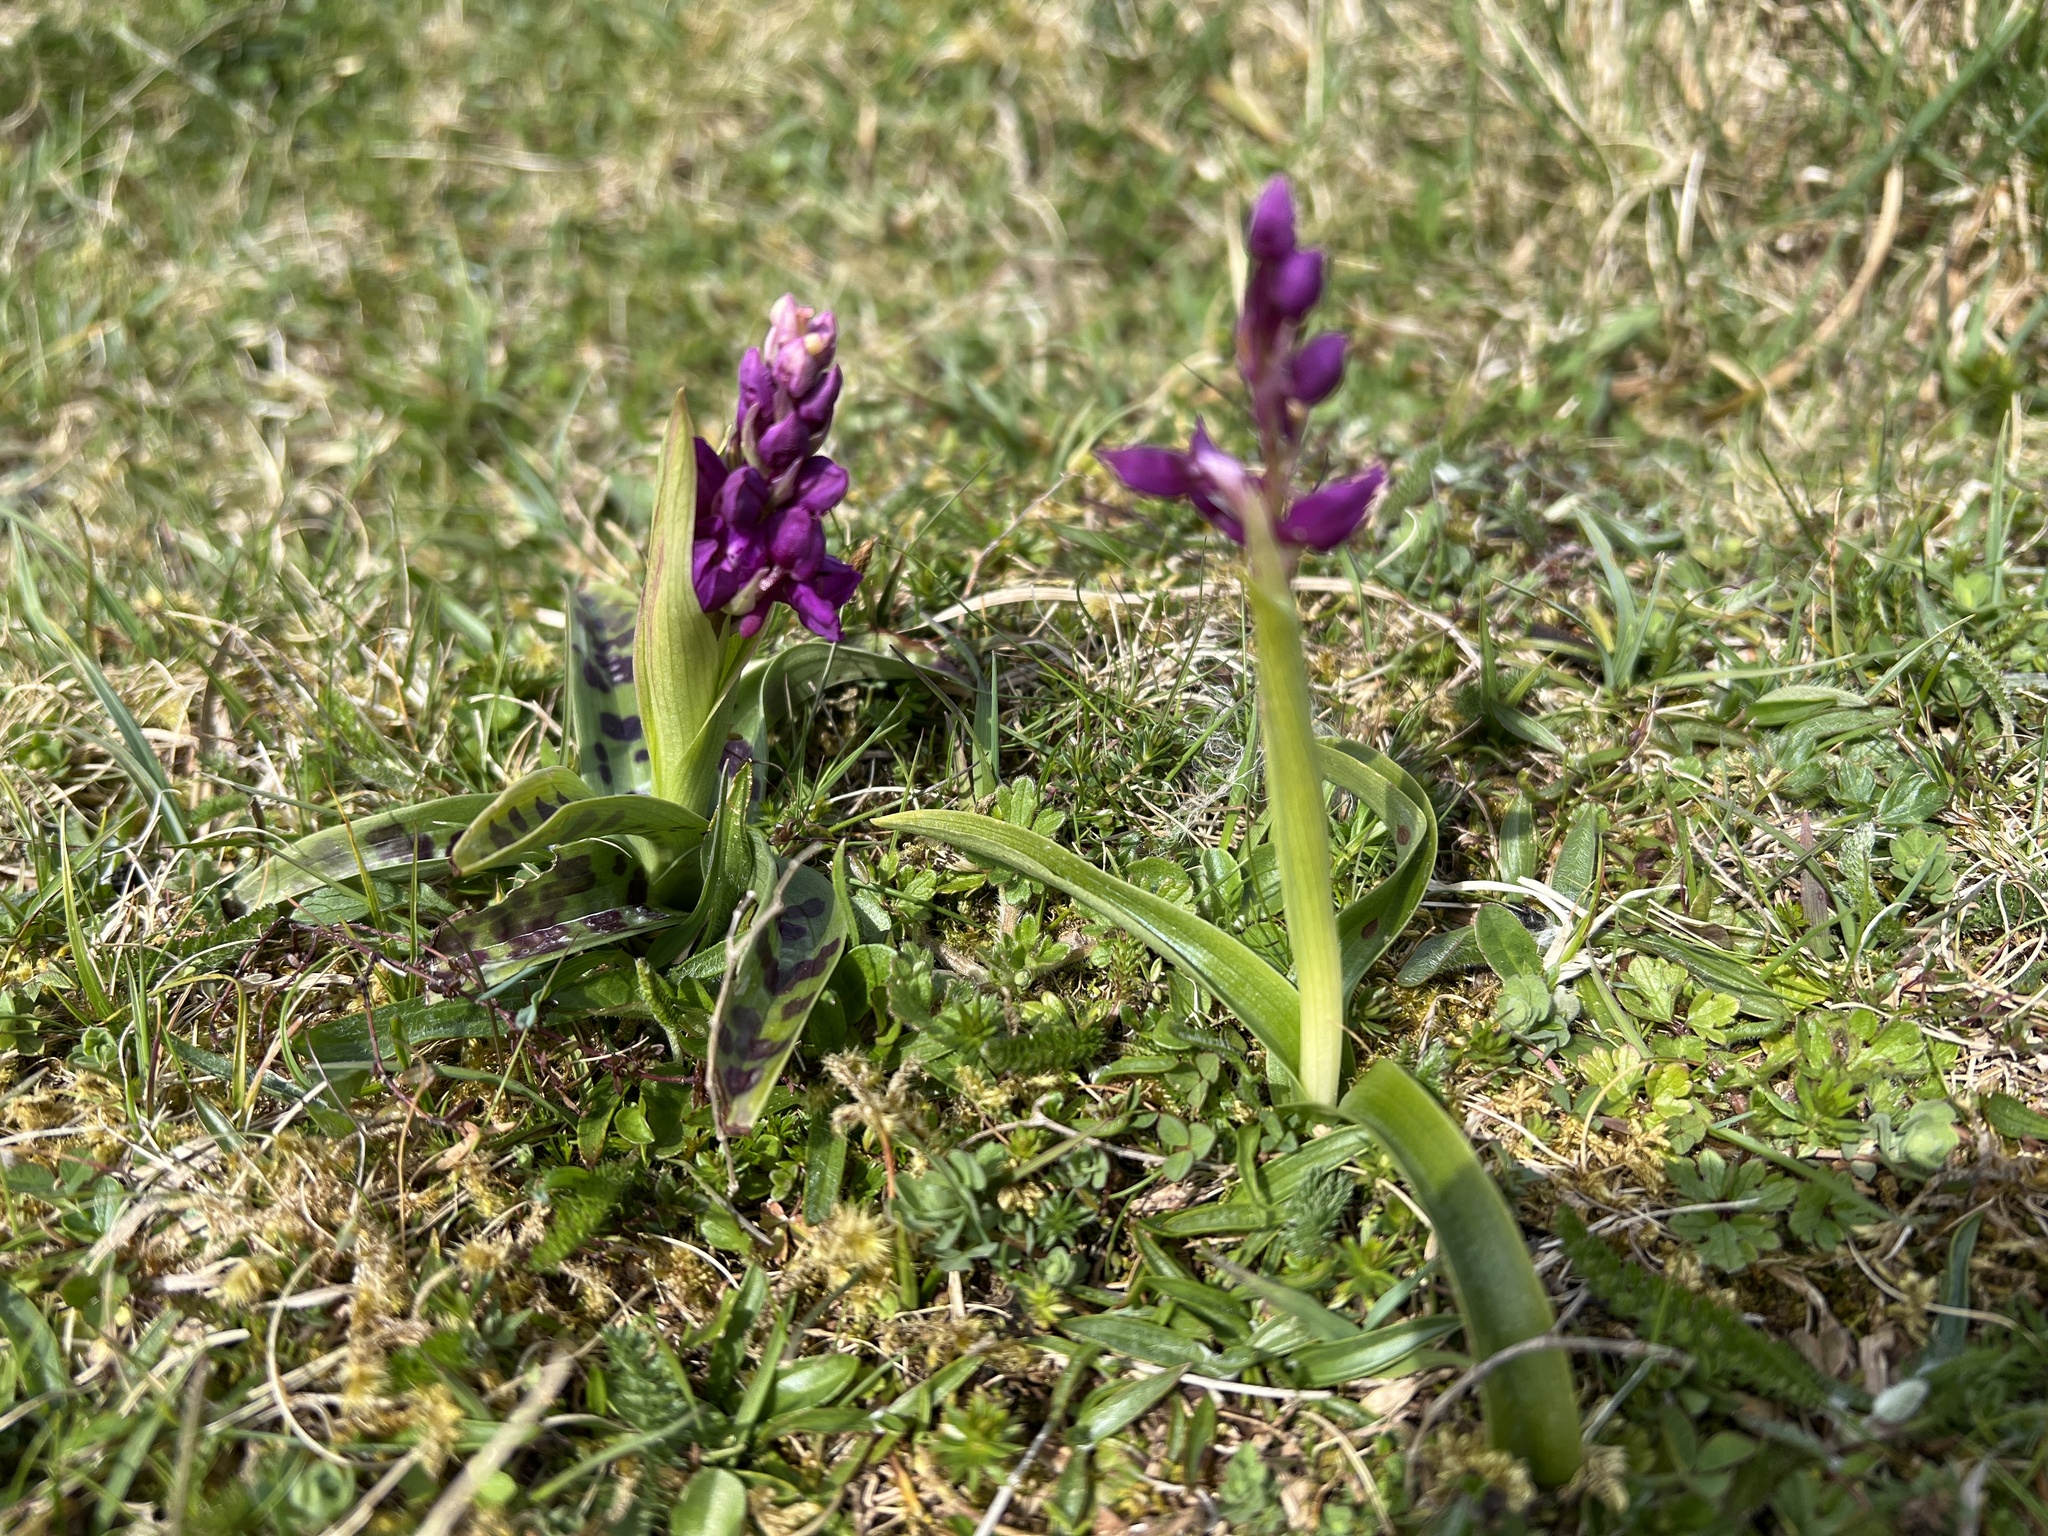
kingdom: Plantae
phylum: Tracheophyta
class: Liliopsida
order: Asparagales
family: Orchidaceae
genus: Orchis
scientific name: Orchis mascula
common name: Early-purple orchid
